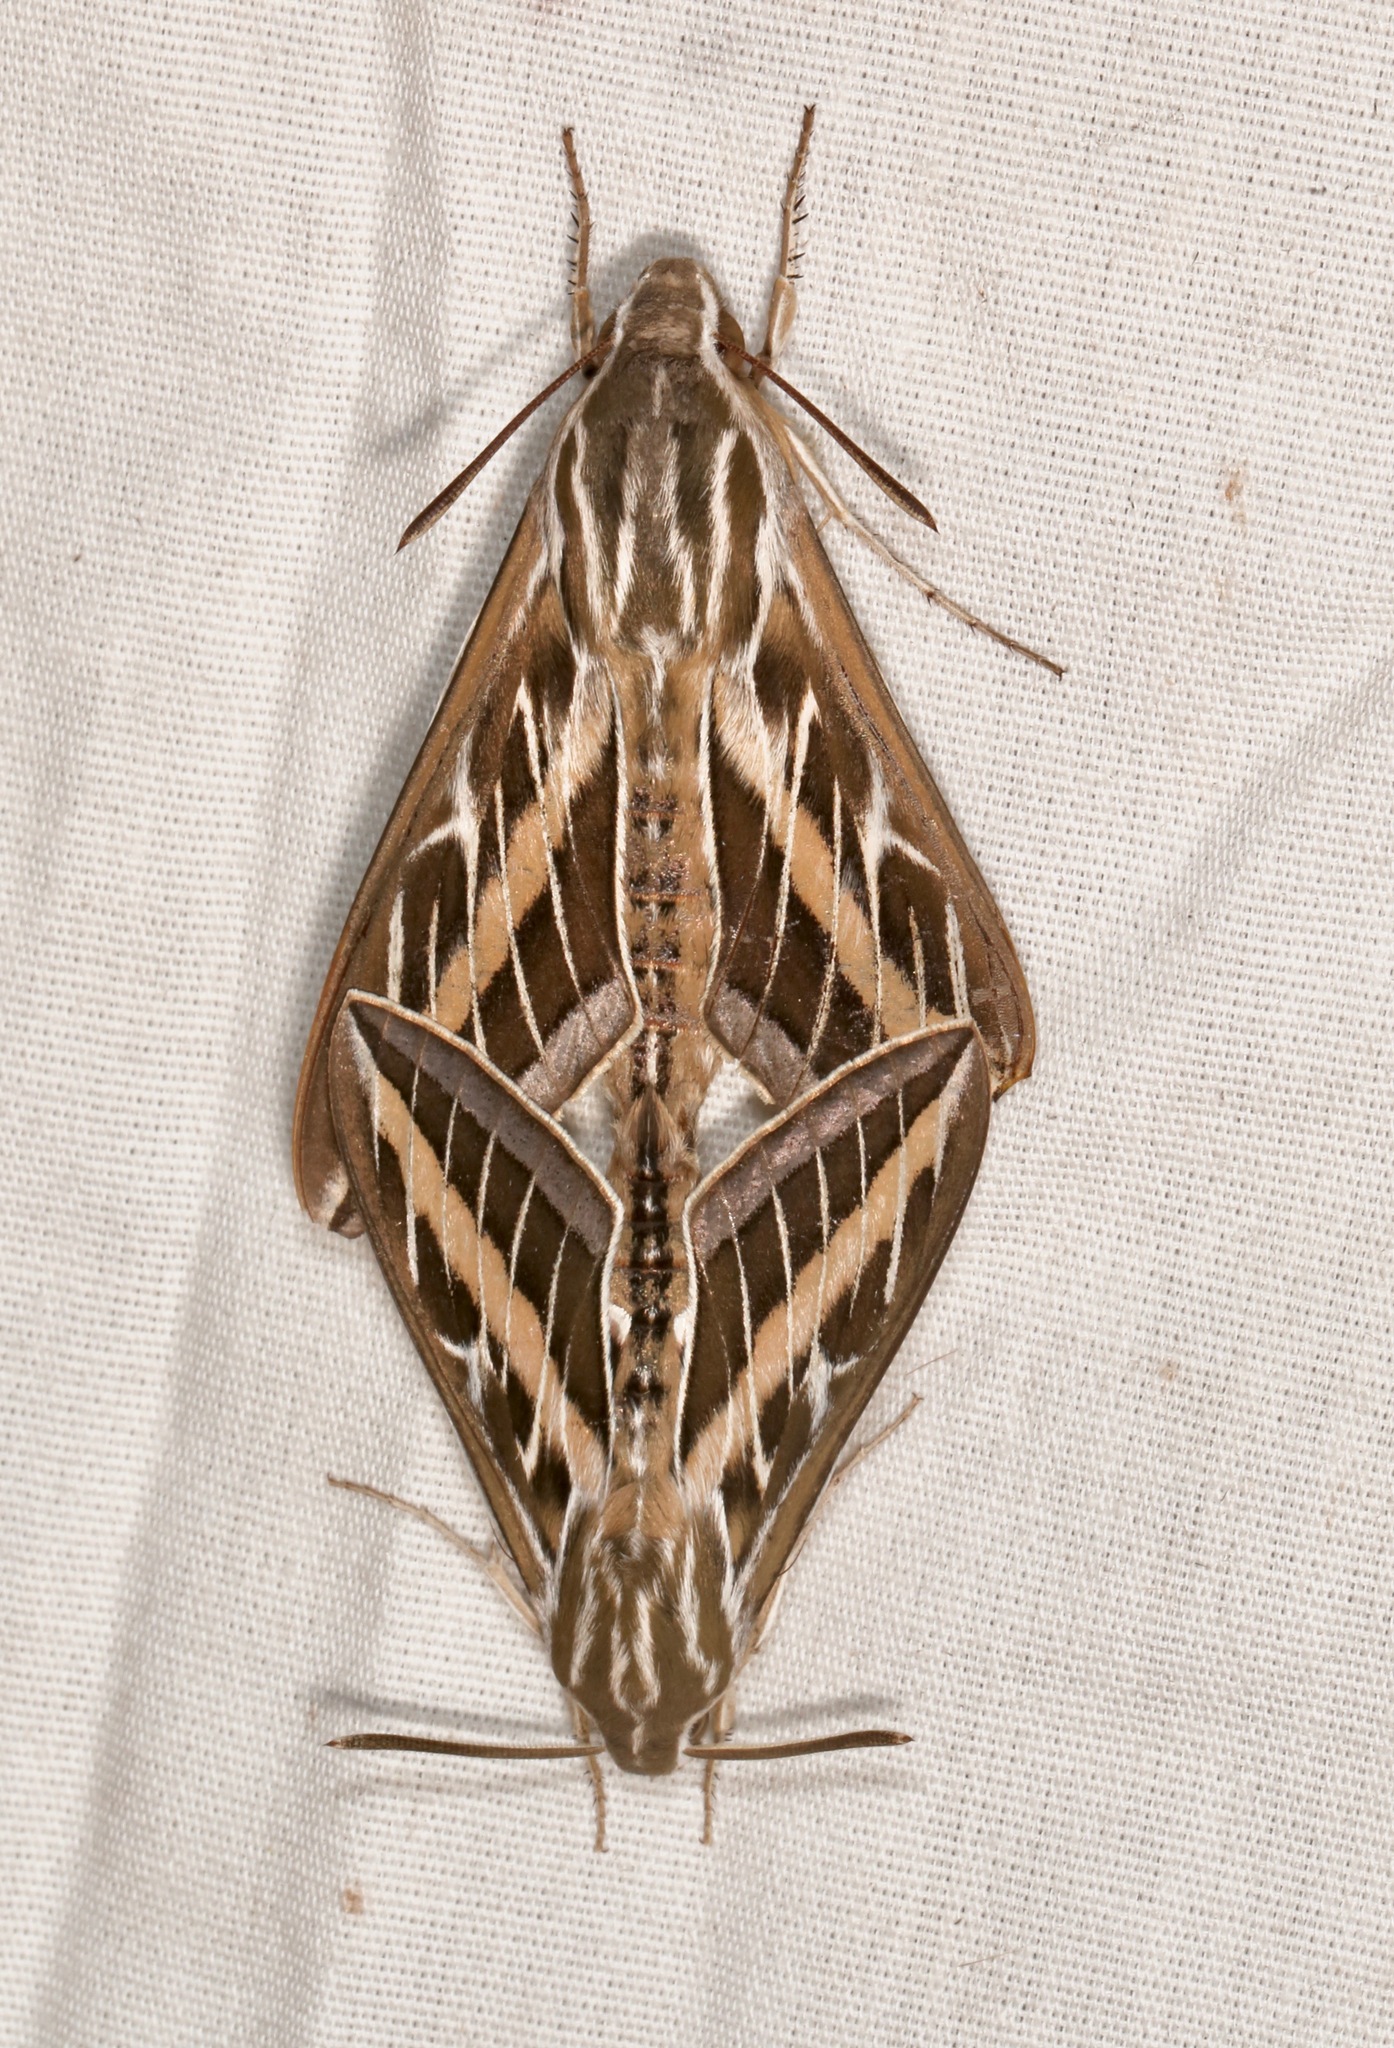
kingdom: Animalia
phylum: Arthropoda
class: Insecta
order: Lepidoptera
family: Sphingidae
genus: Hyles
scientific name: Hyles lineata
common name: White-lined sphinx
